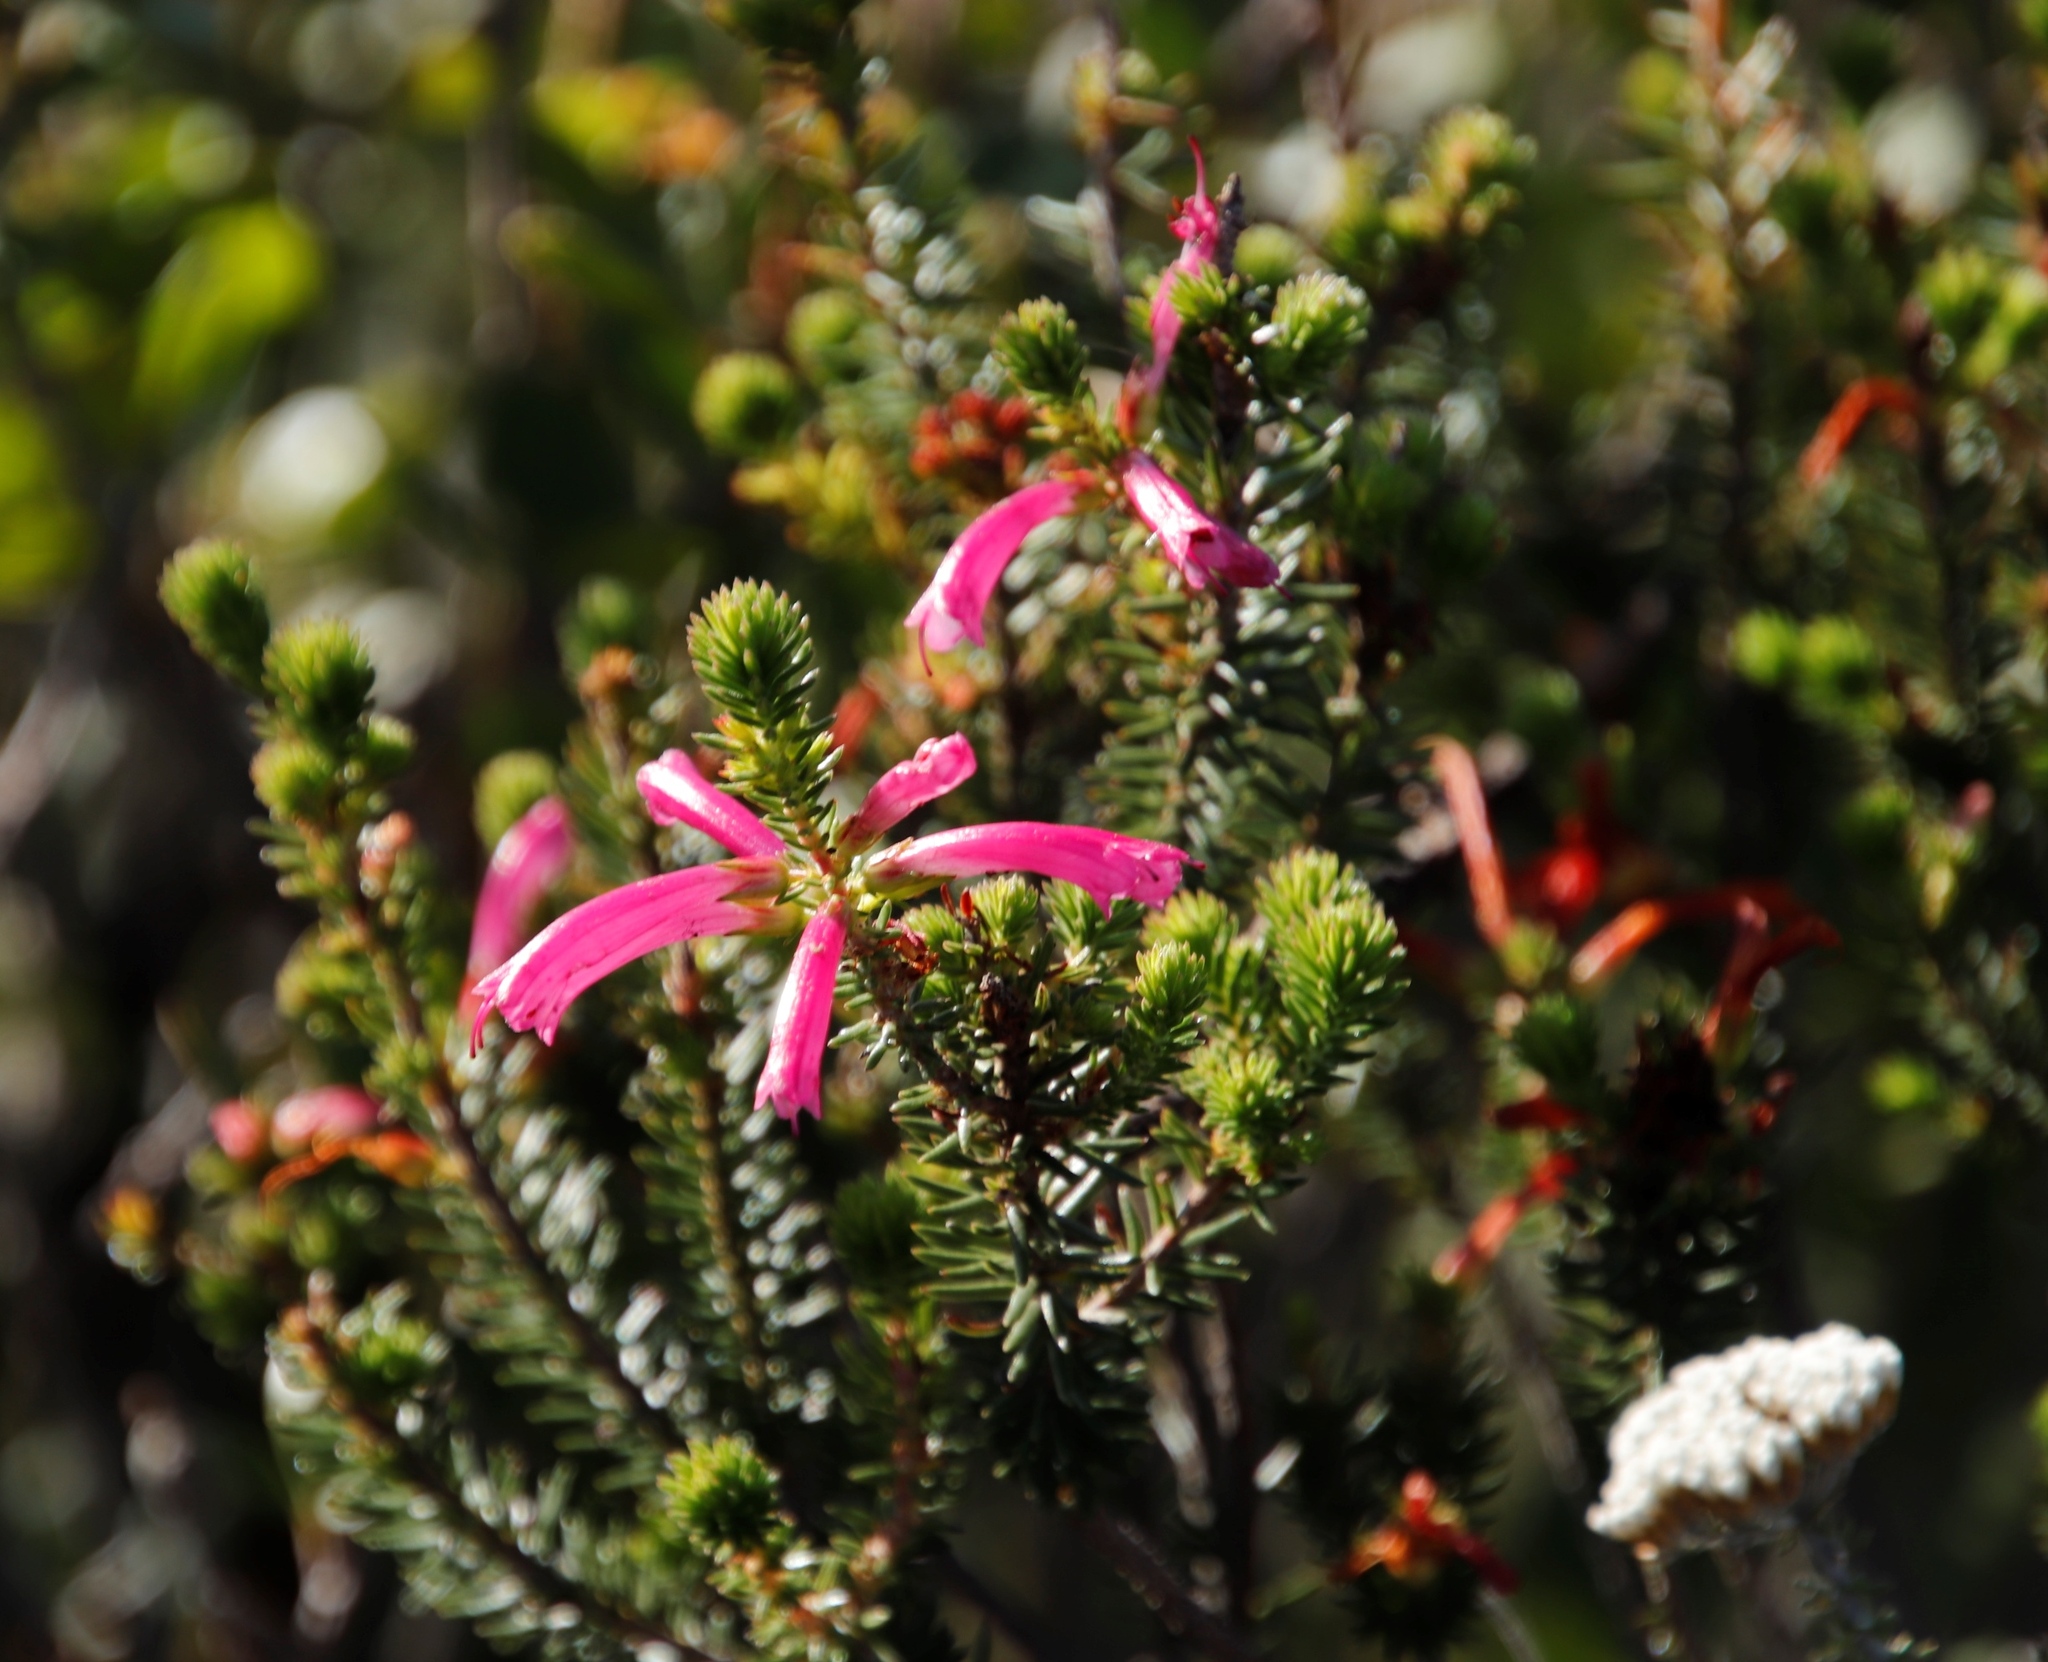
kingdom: Plantae
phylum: Tracheophyta
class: Magnoliopsida
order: Ericales
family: Ericaceae
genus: Erica
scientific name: Erica abietina
